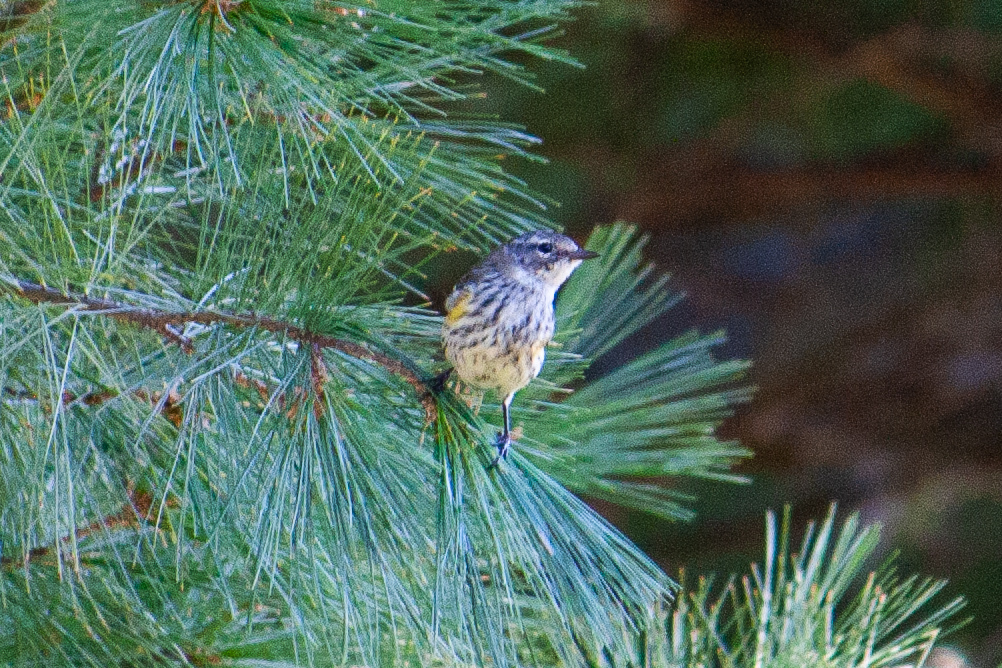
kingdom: Animalia
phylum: Chordata
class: Aves
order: Passeriformes
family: Parulidae
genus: Setophaga
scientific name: Setophaga coronata
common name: Myrtle warbler
